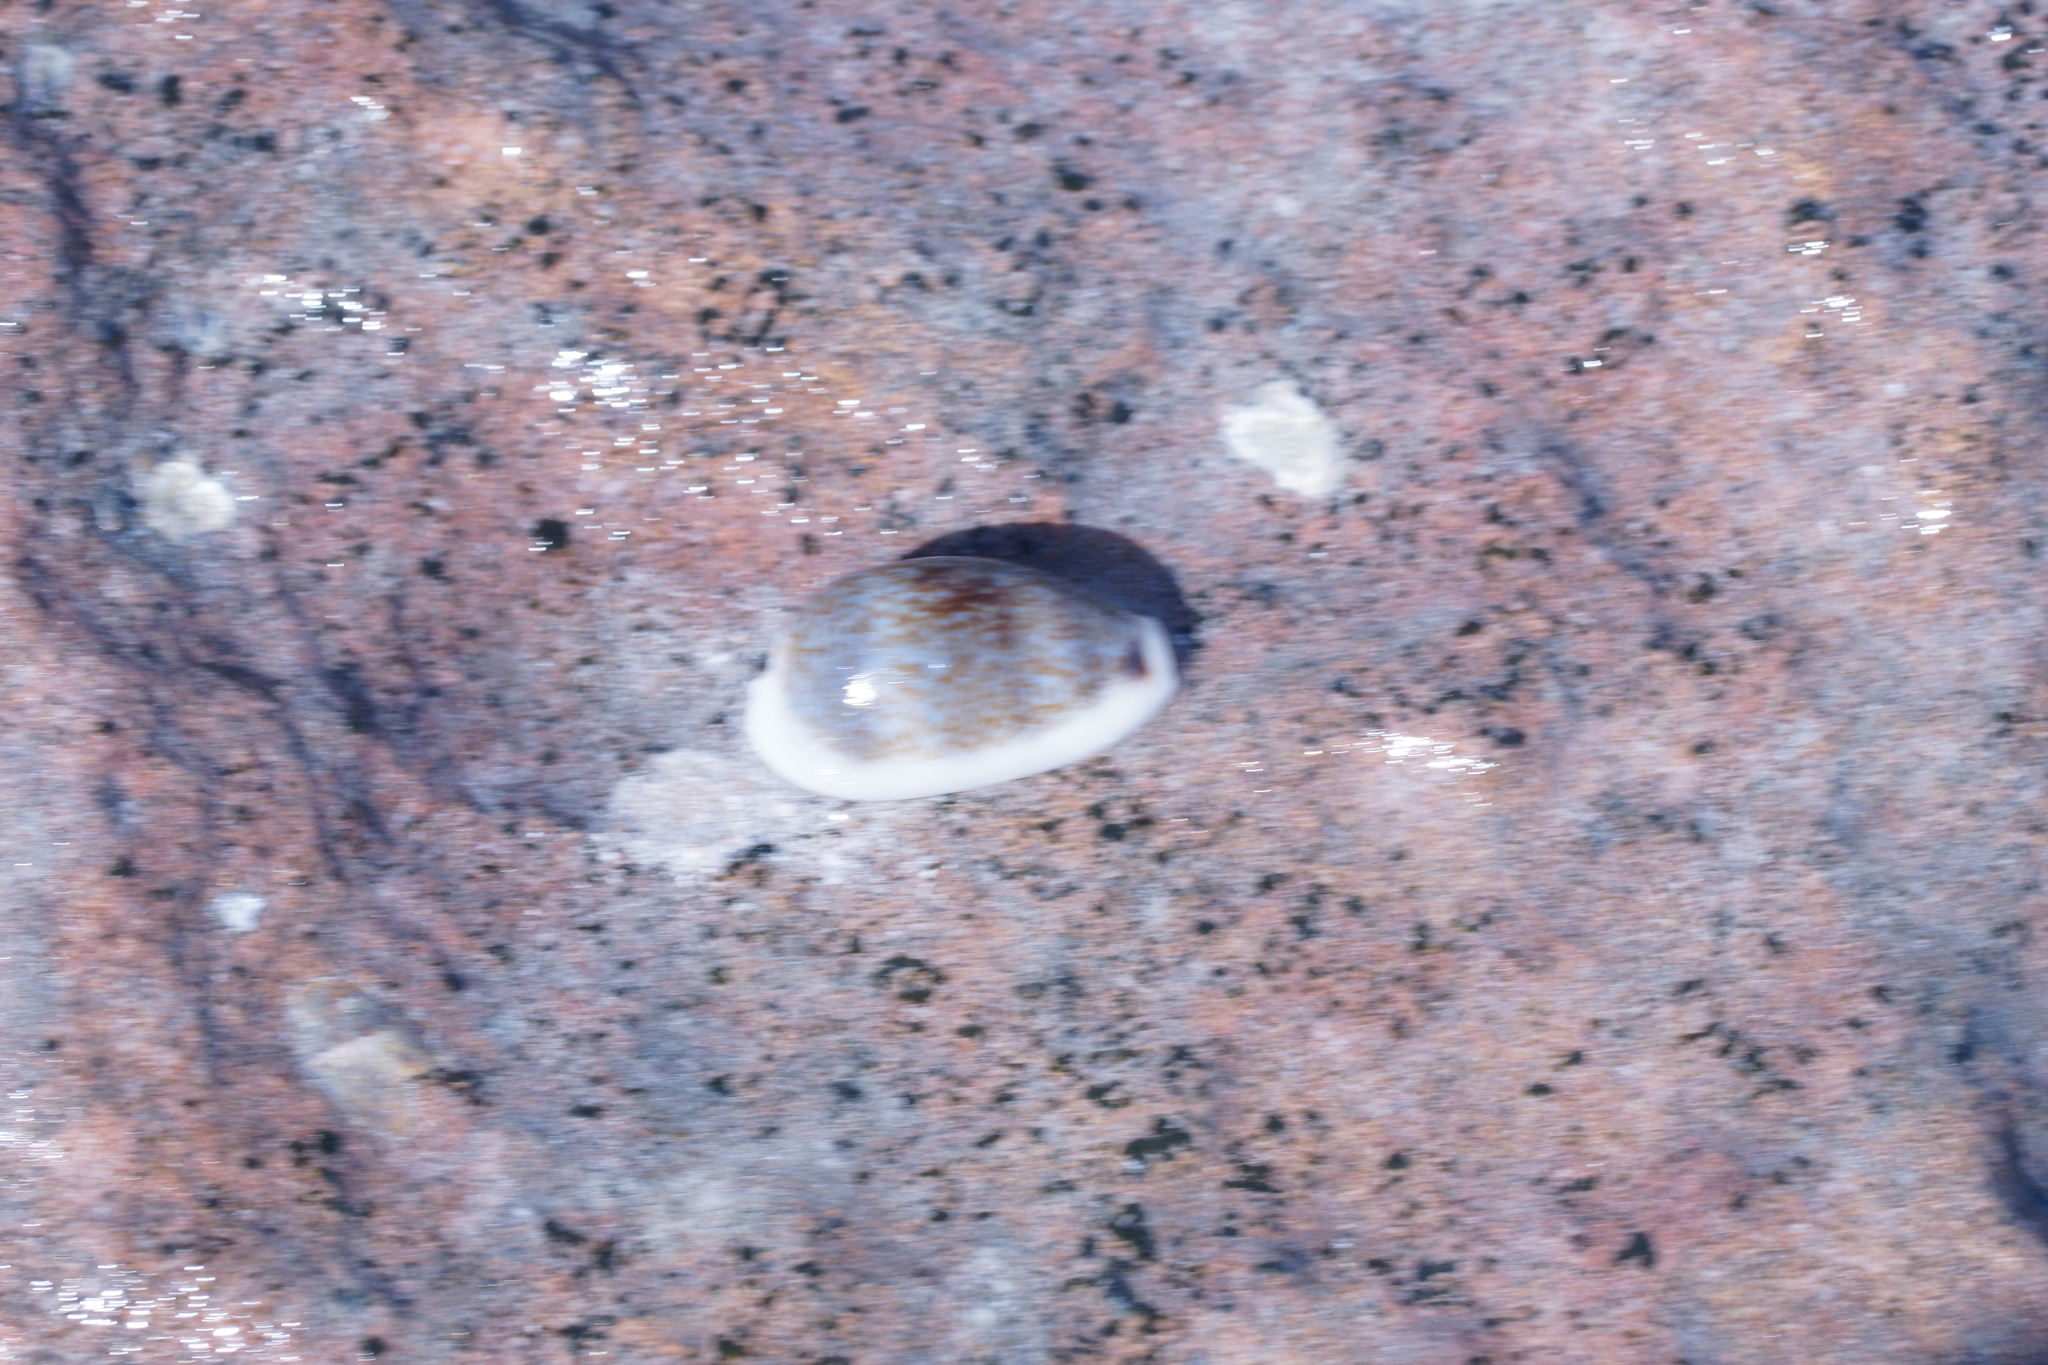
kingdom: Animalia
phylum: Mollusca
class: Gastropoda
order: Littorinimorpha
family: Cypraeidae
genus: Erronea
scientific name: Erronea errones
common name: Mistaken cowrie
